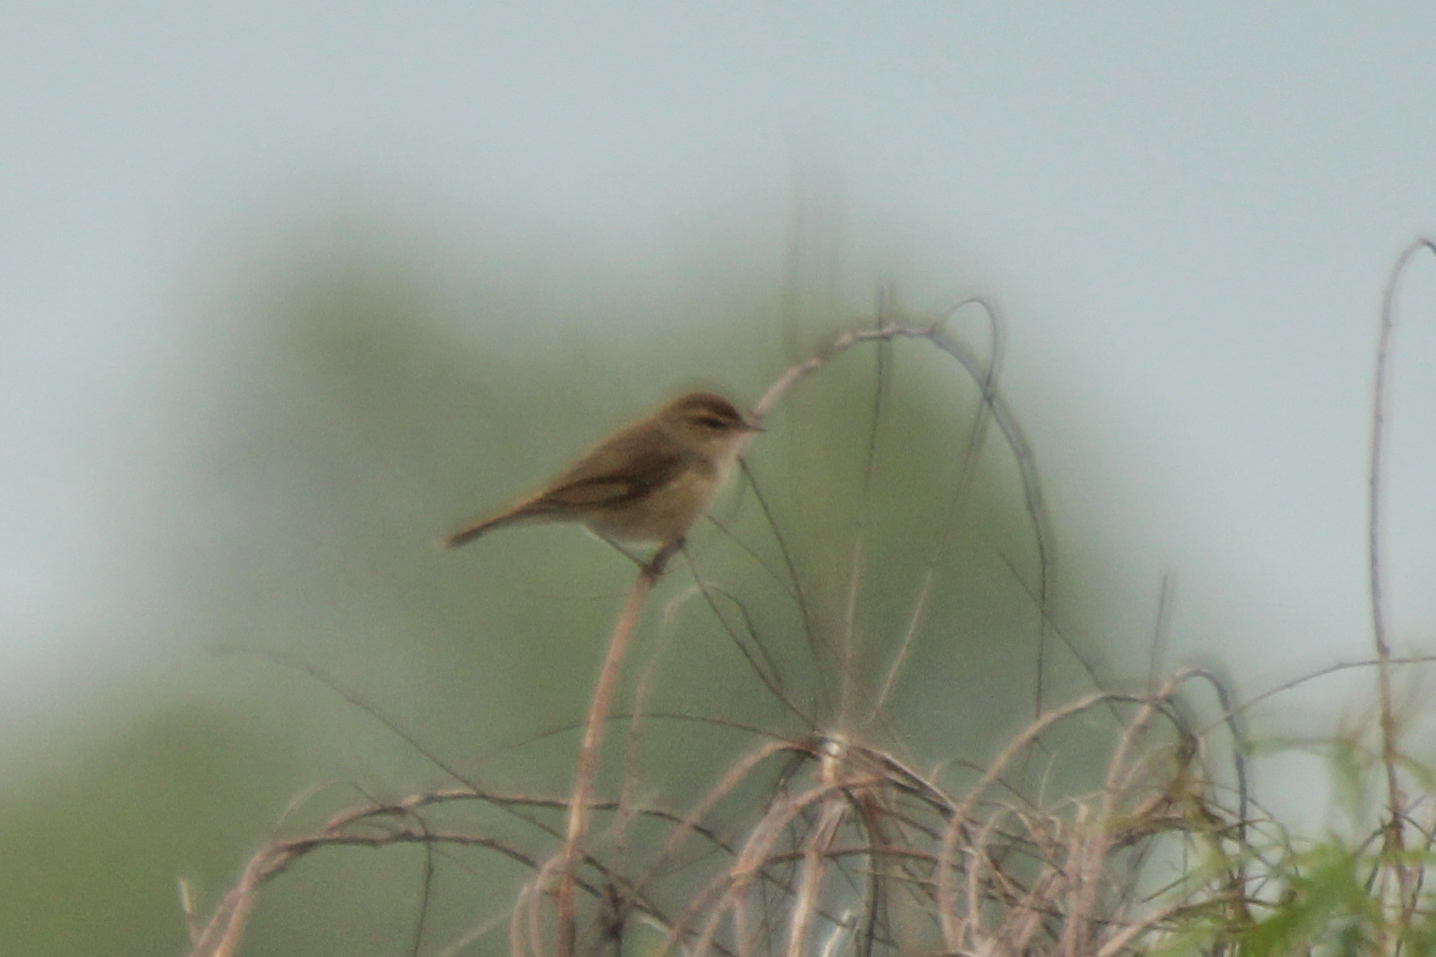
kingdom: Animalia
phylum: Chordata
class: Aves
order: Passeriformes
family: Phylloscopidae
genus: Phylloscopus
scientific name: Phylloscopus fuscatus
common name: Dusky warbler
